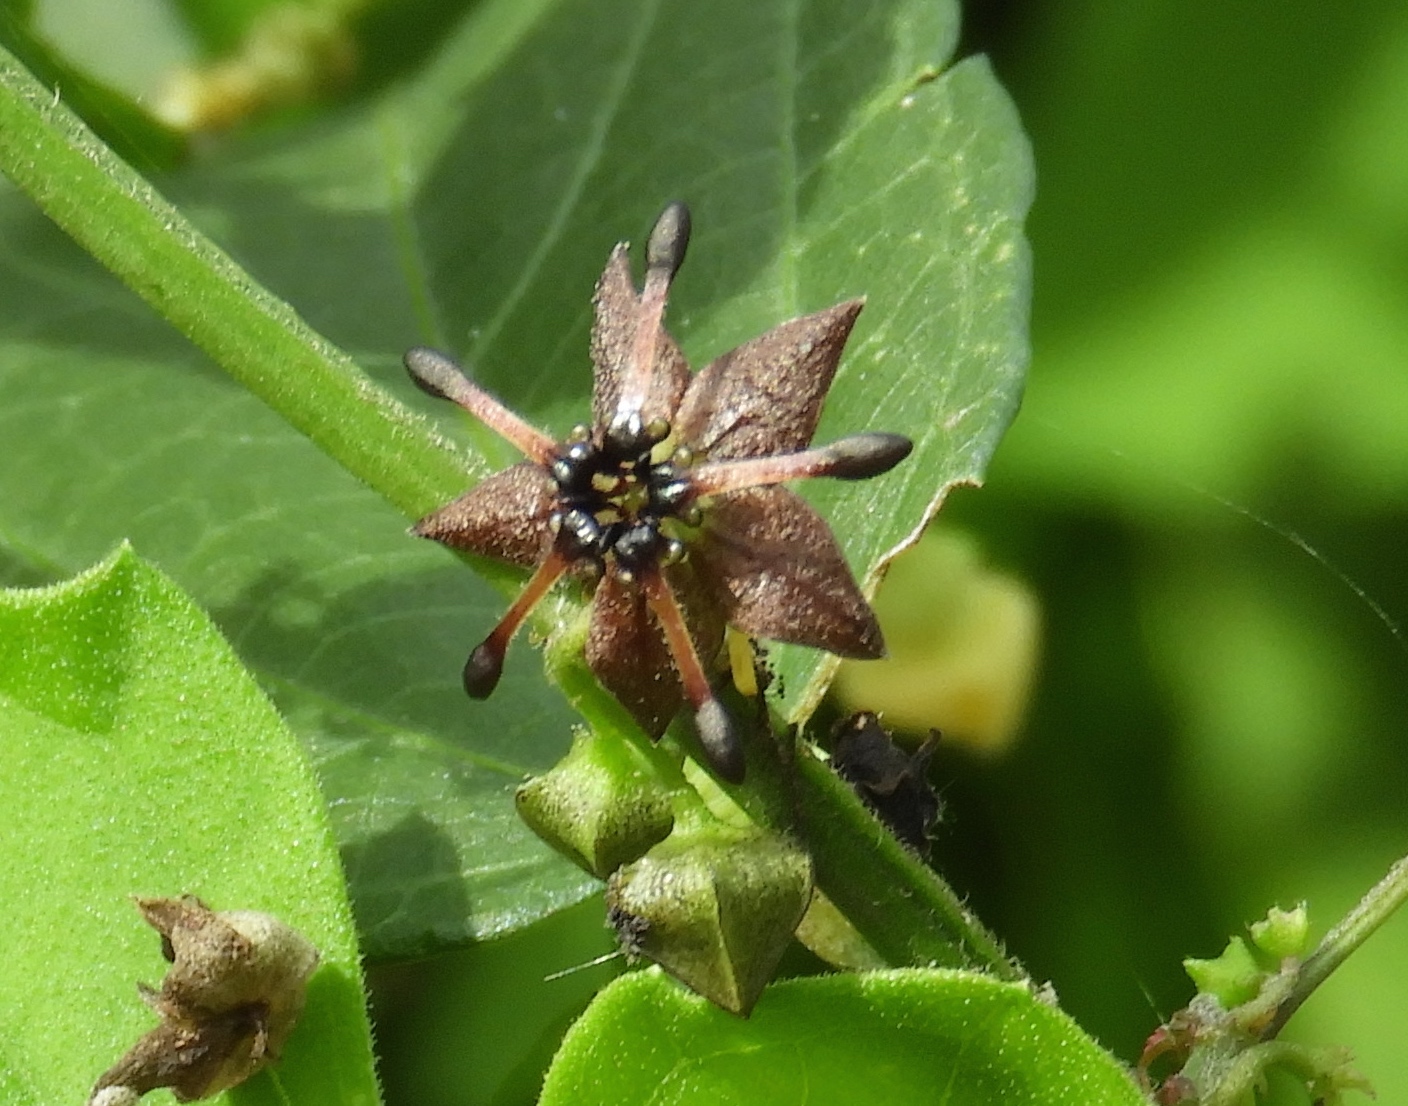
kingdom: Plantae
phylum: Tracheophyta
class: Magnoliopsida
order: Malvales
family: Malvaceae
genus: Byttneria
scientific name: Byttneria aculeata
